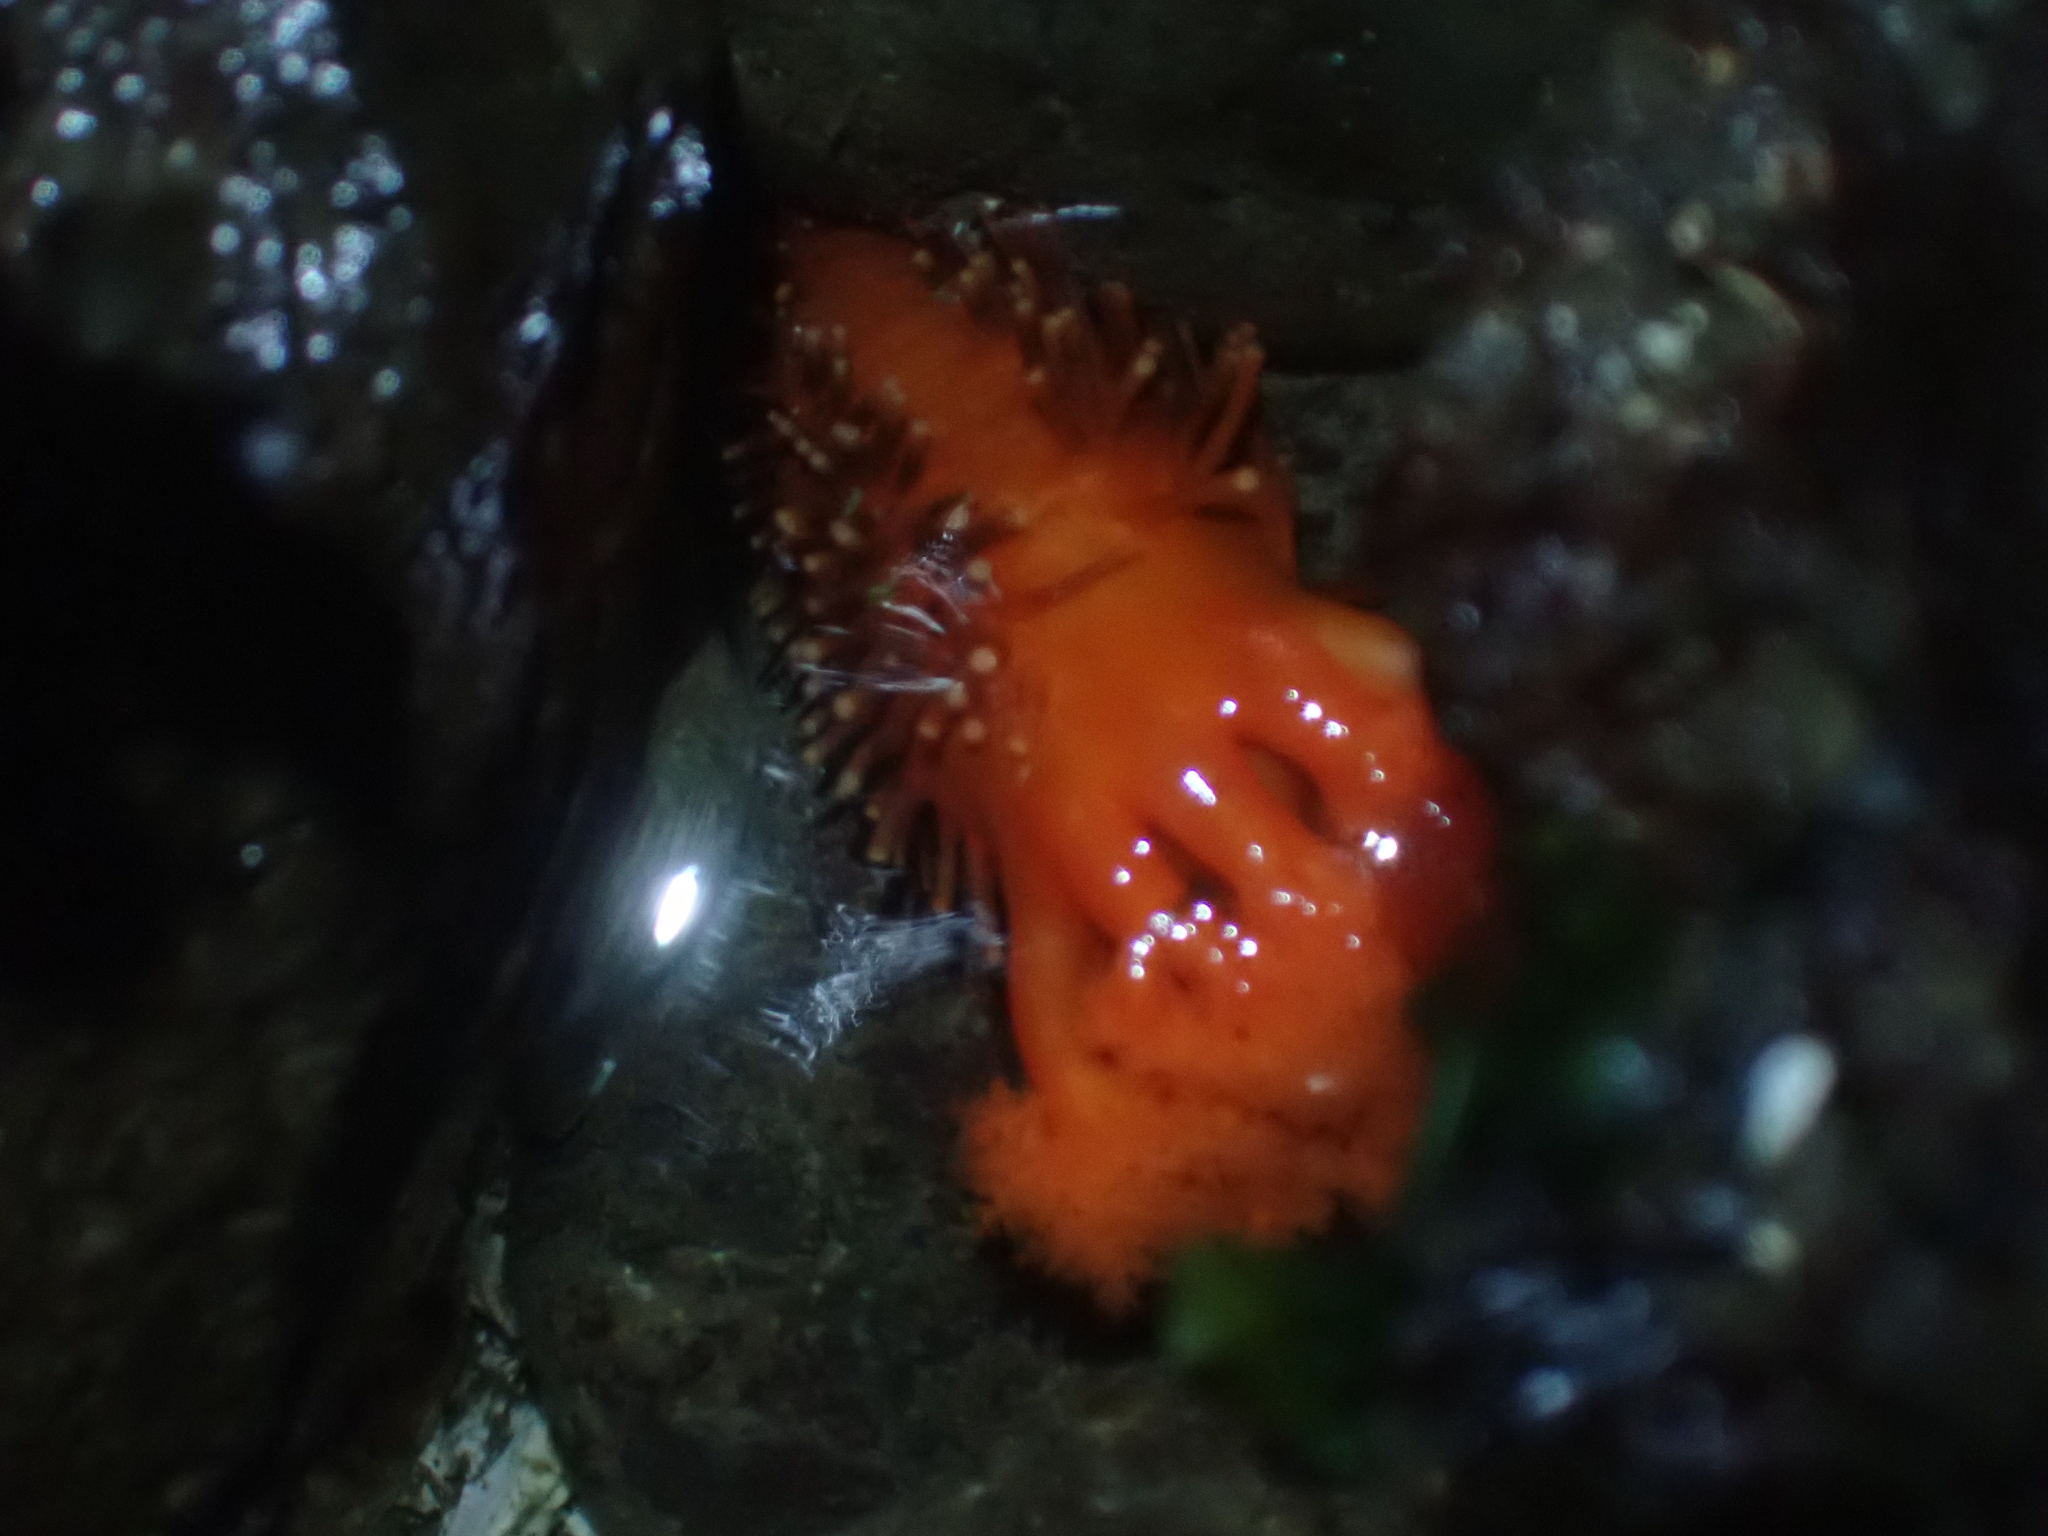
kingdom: Animalia
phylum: Echinodermata
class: Holothuroidea
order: Dendrochirotida
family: Cucumariidae
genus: Cucumaria
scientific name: Cucumaria miniata
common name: Orange sea cucumber
